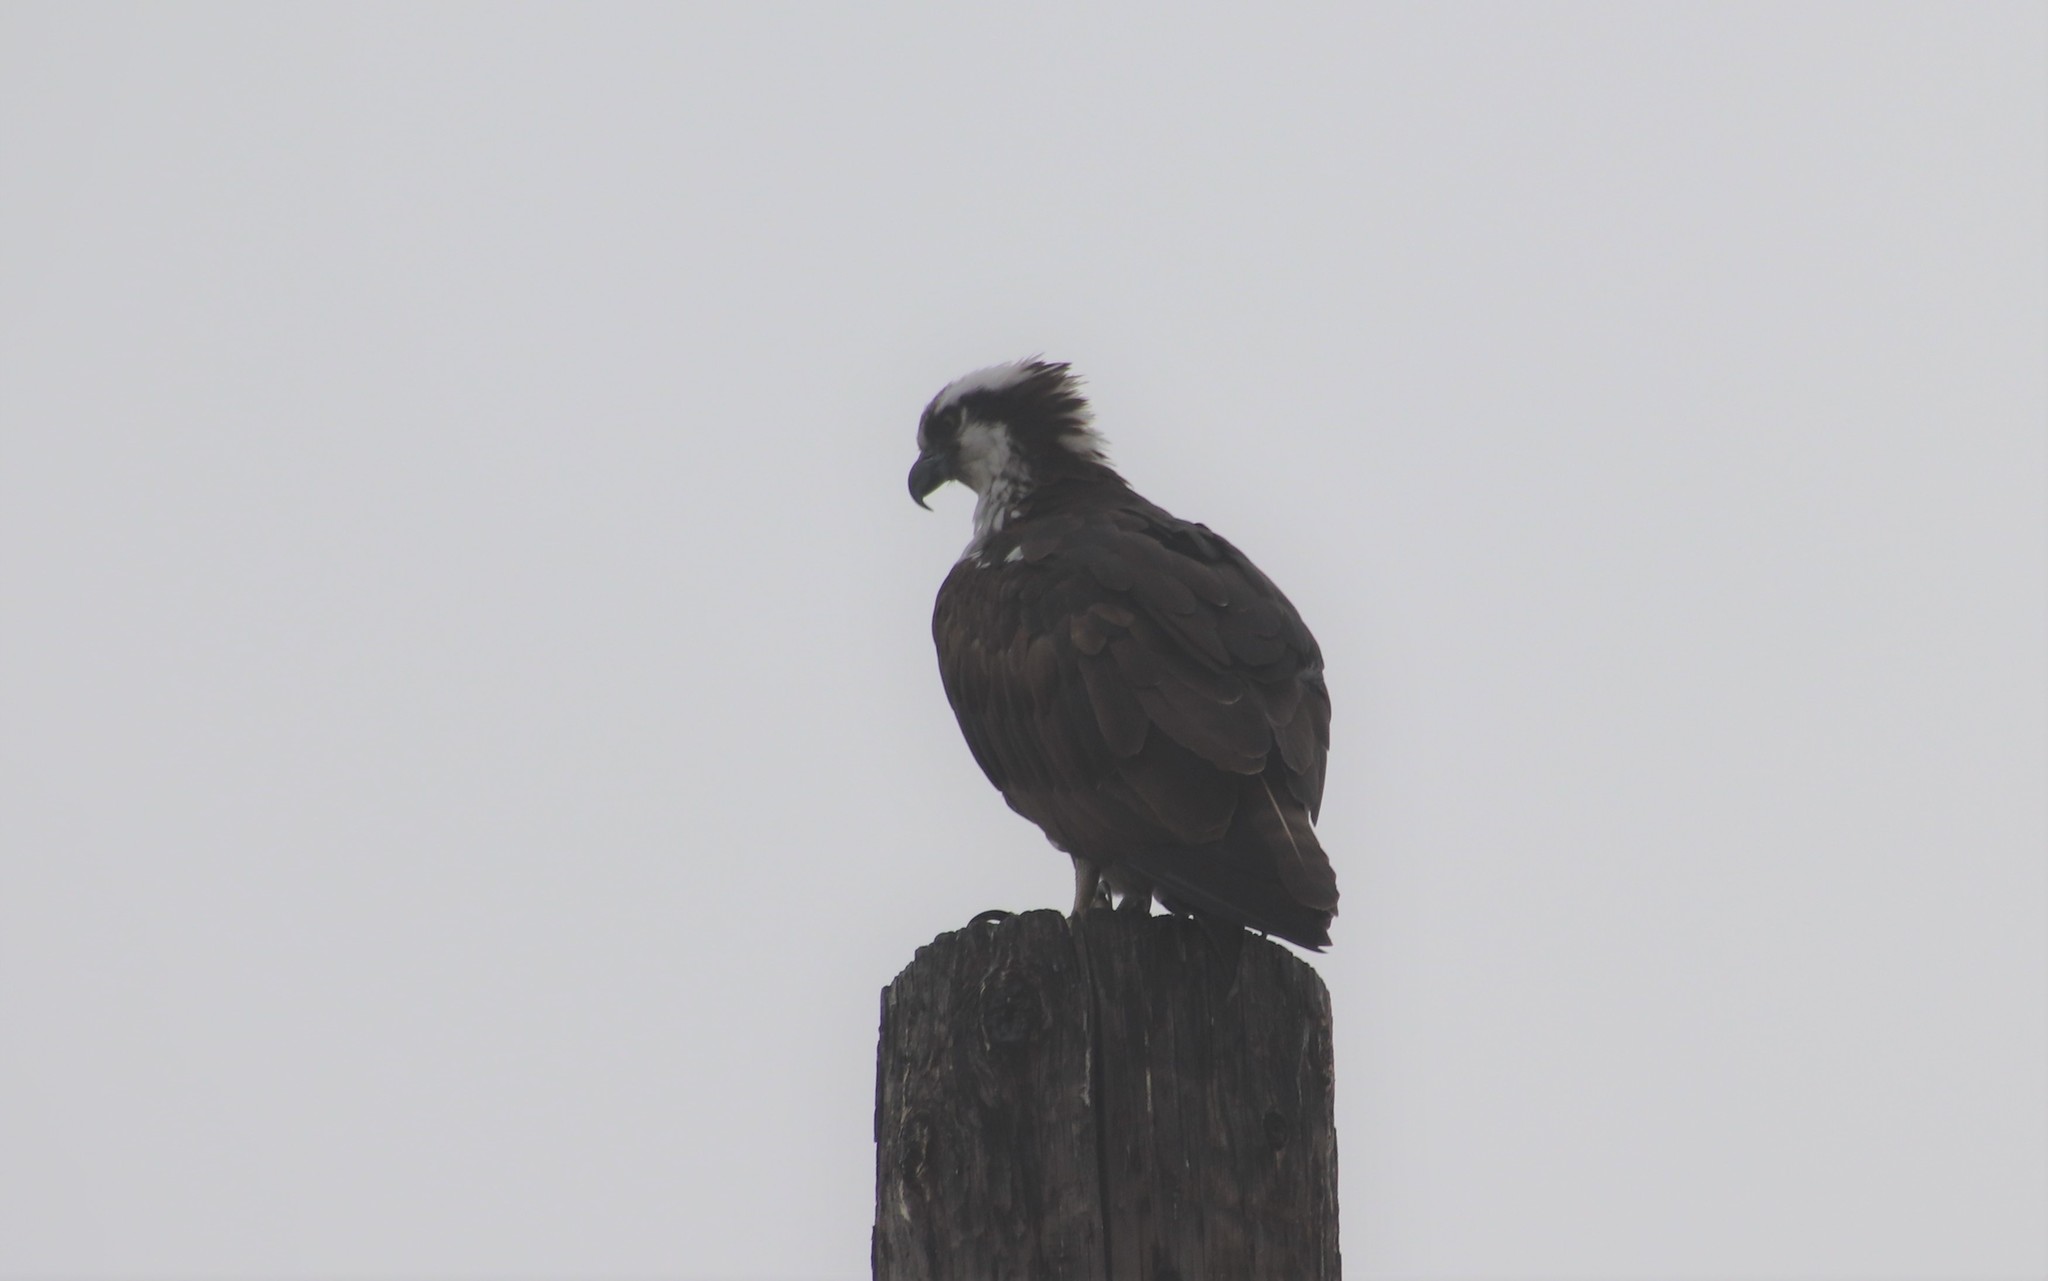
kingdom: Animalia
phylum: Chordata
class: Aves
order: Accipitriformes
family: Pandionidae
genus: Pandion
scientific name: Pandion haliaetus
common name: Osprey
